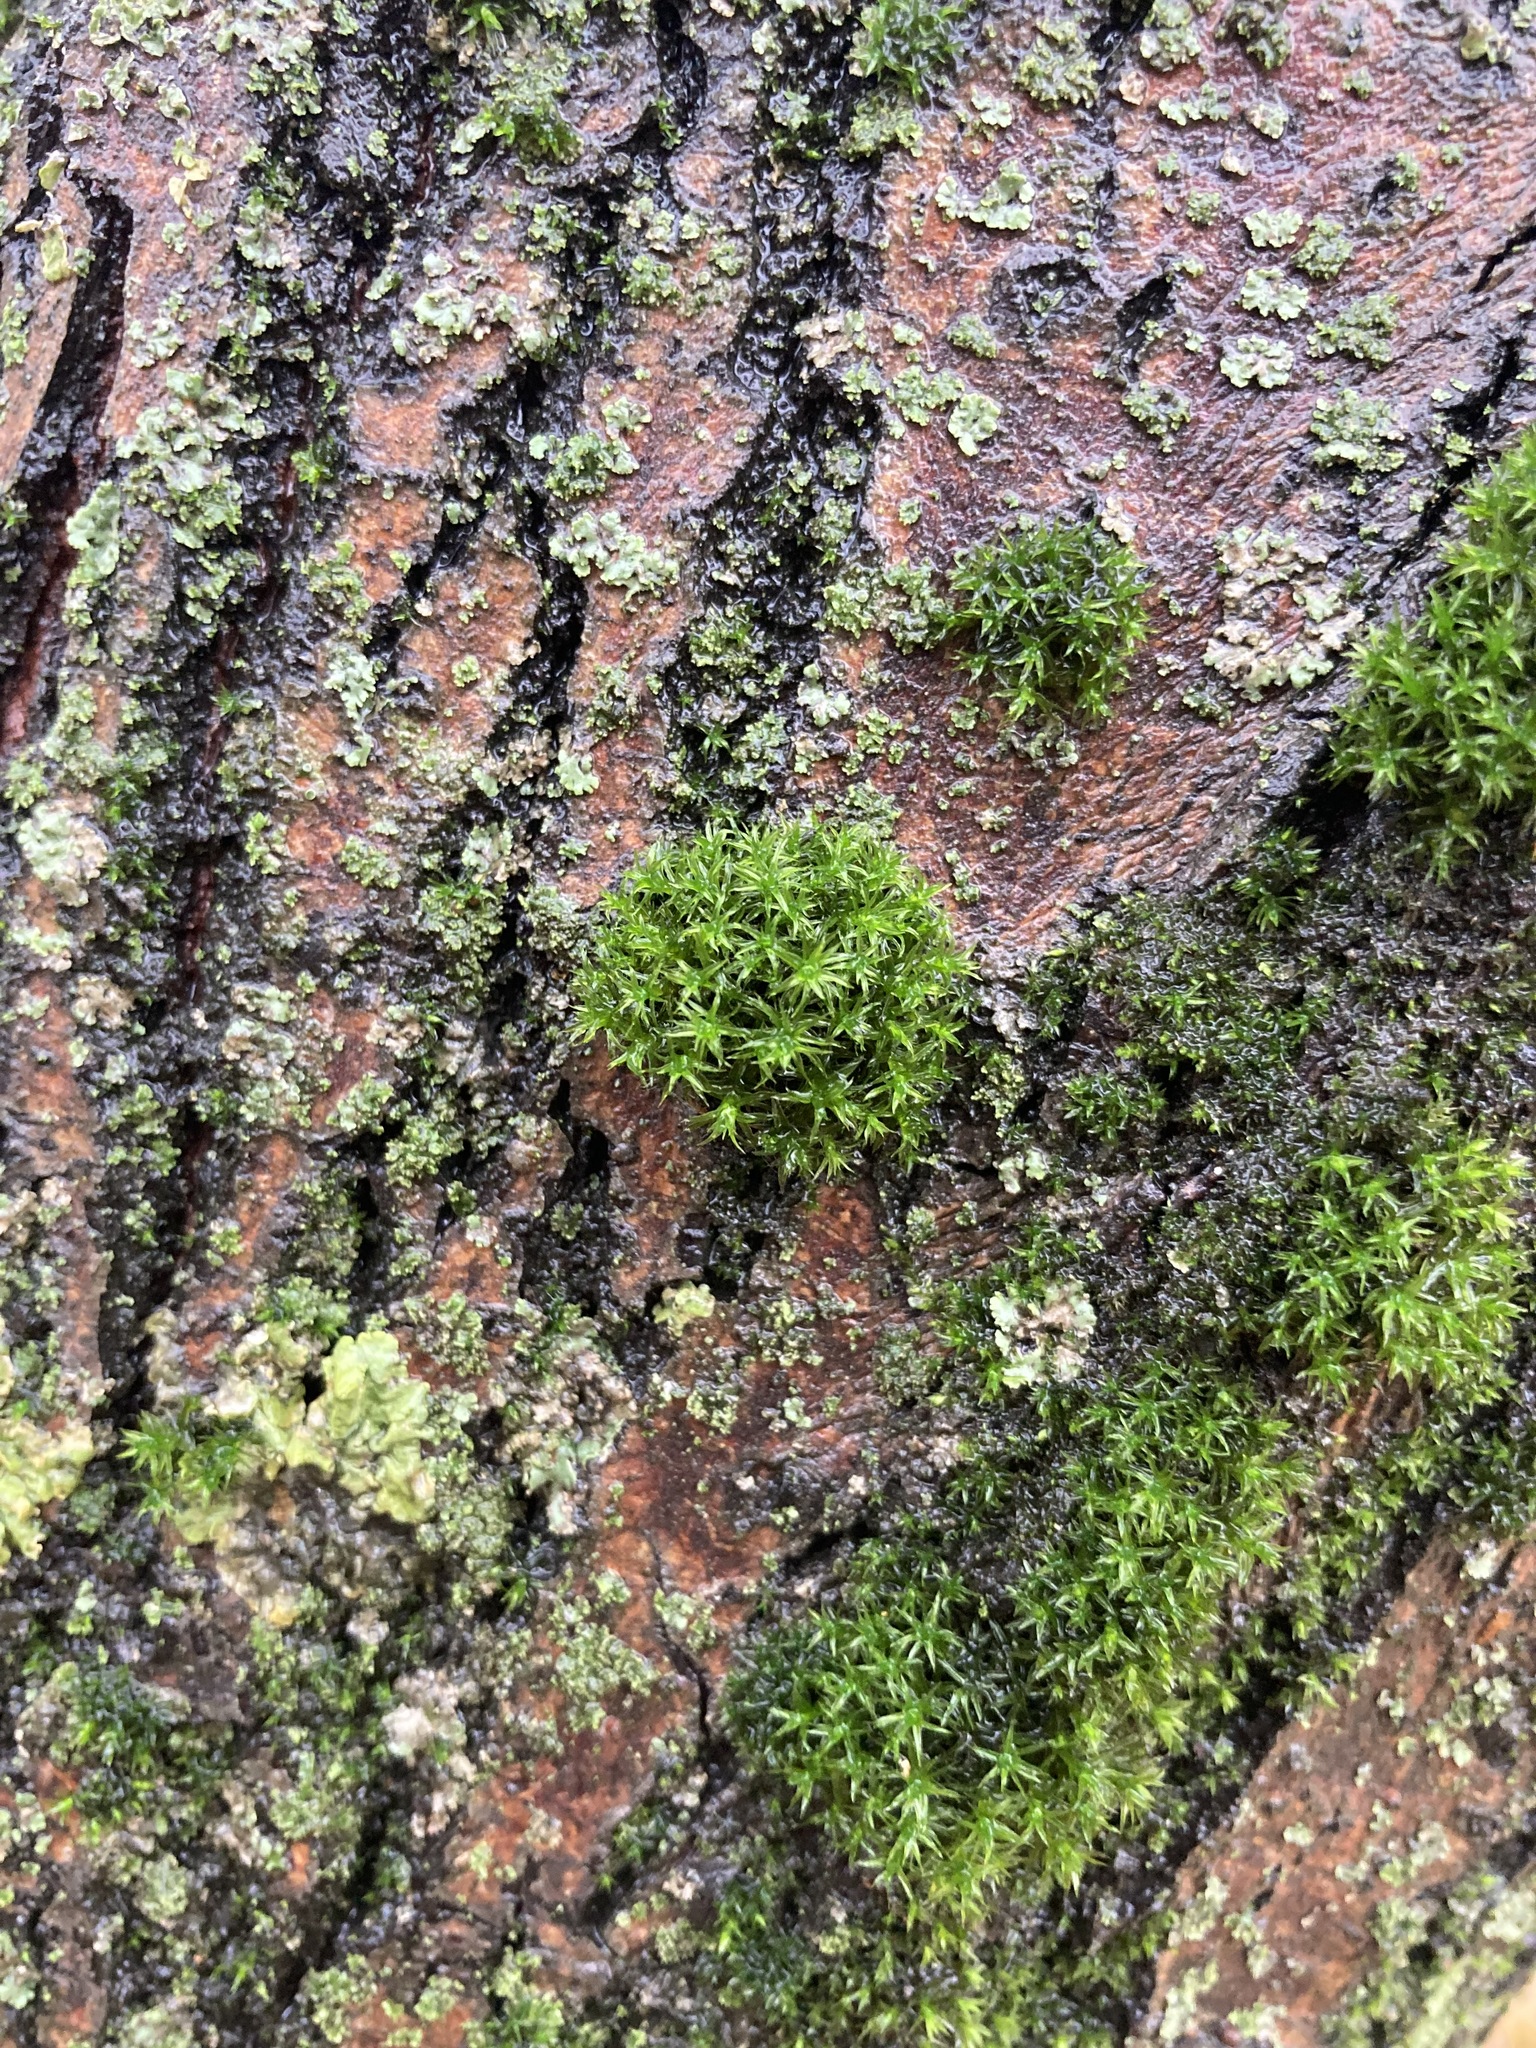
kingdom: Plantae
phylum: Bryophyta
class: Bryopsida
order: Orthotrichales
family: Orthotrichaceae
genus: Lewinskya
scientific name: Lewinskya speciosa
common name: Showy bristle moss
